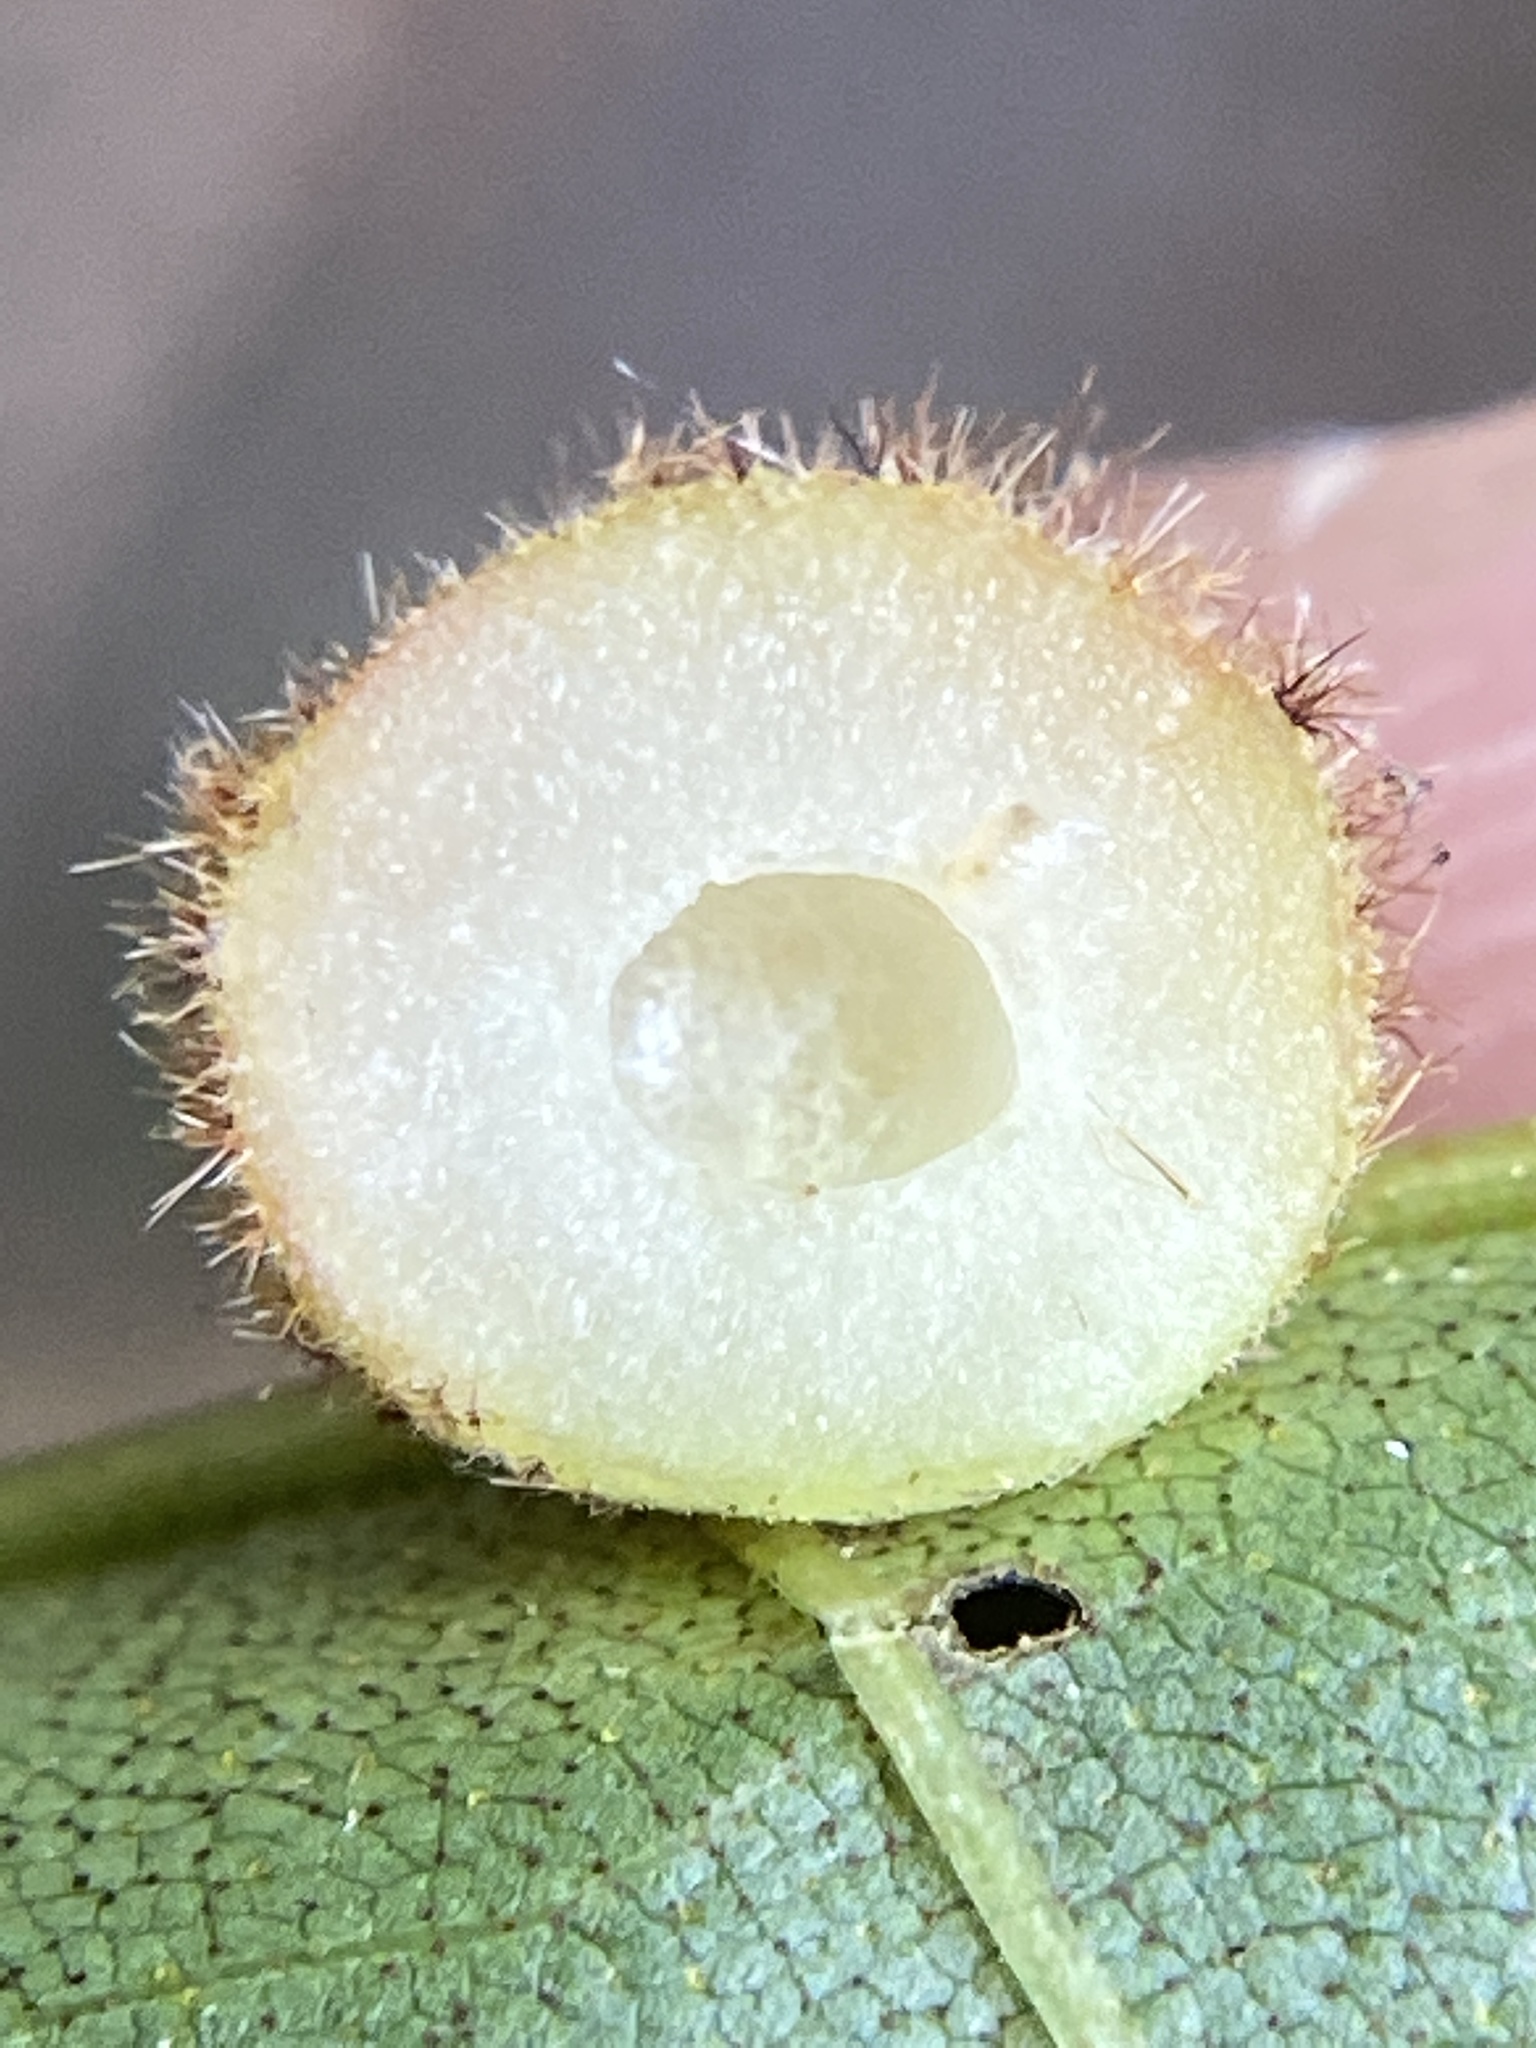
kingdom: Animalia
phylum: Arthropoda
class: Insecta
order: Diptera
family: Cecidomyiidae
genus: Caryomyia
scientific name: Caryomyia spherica
